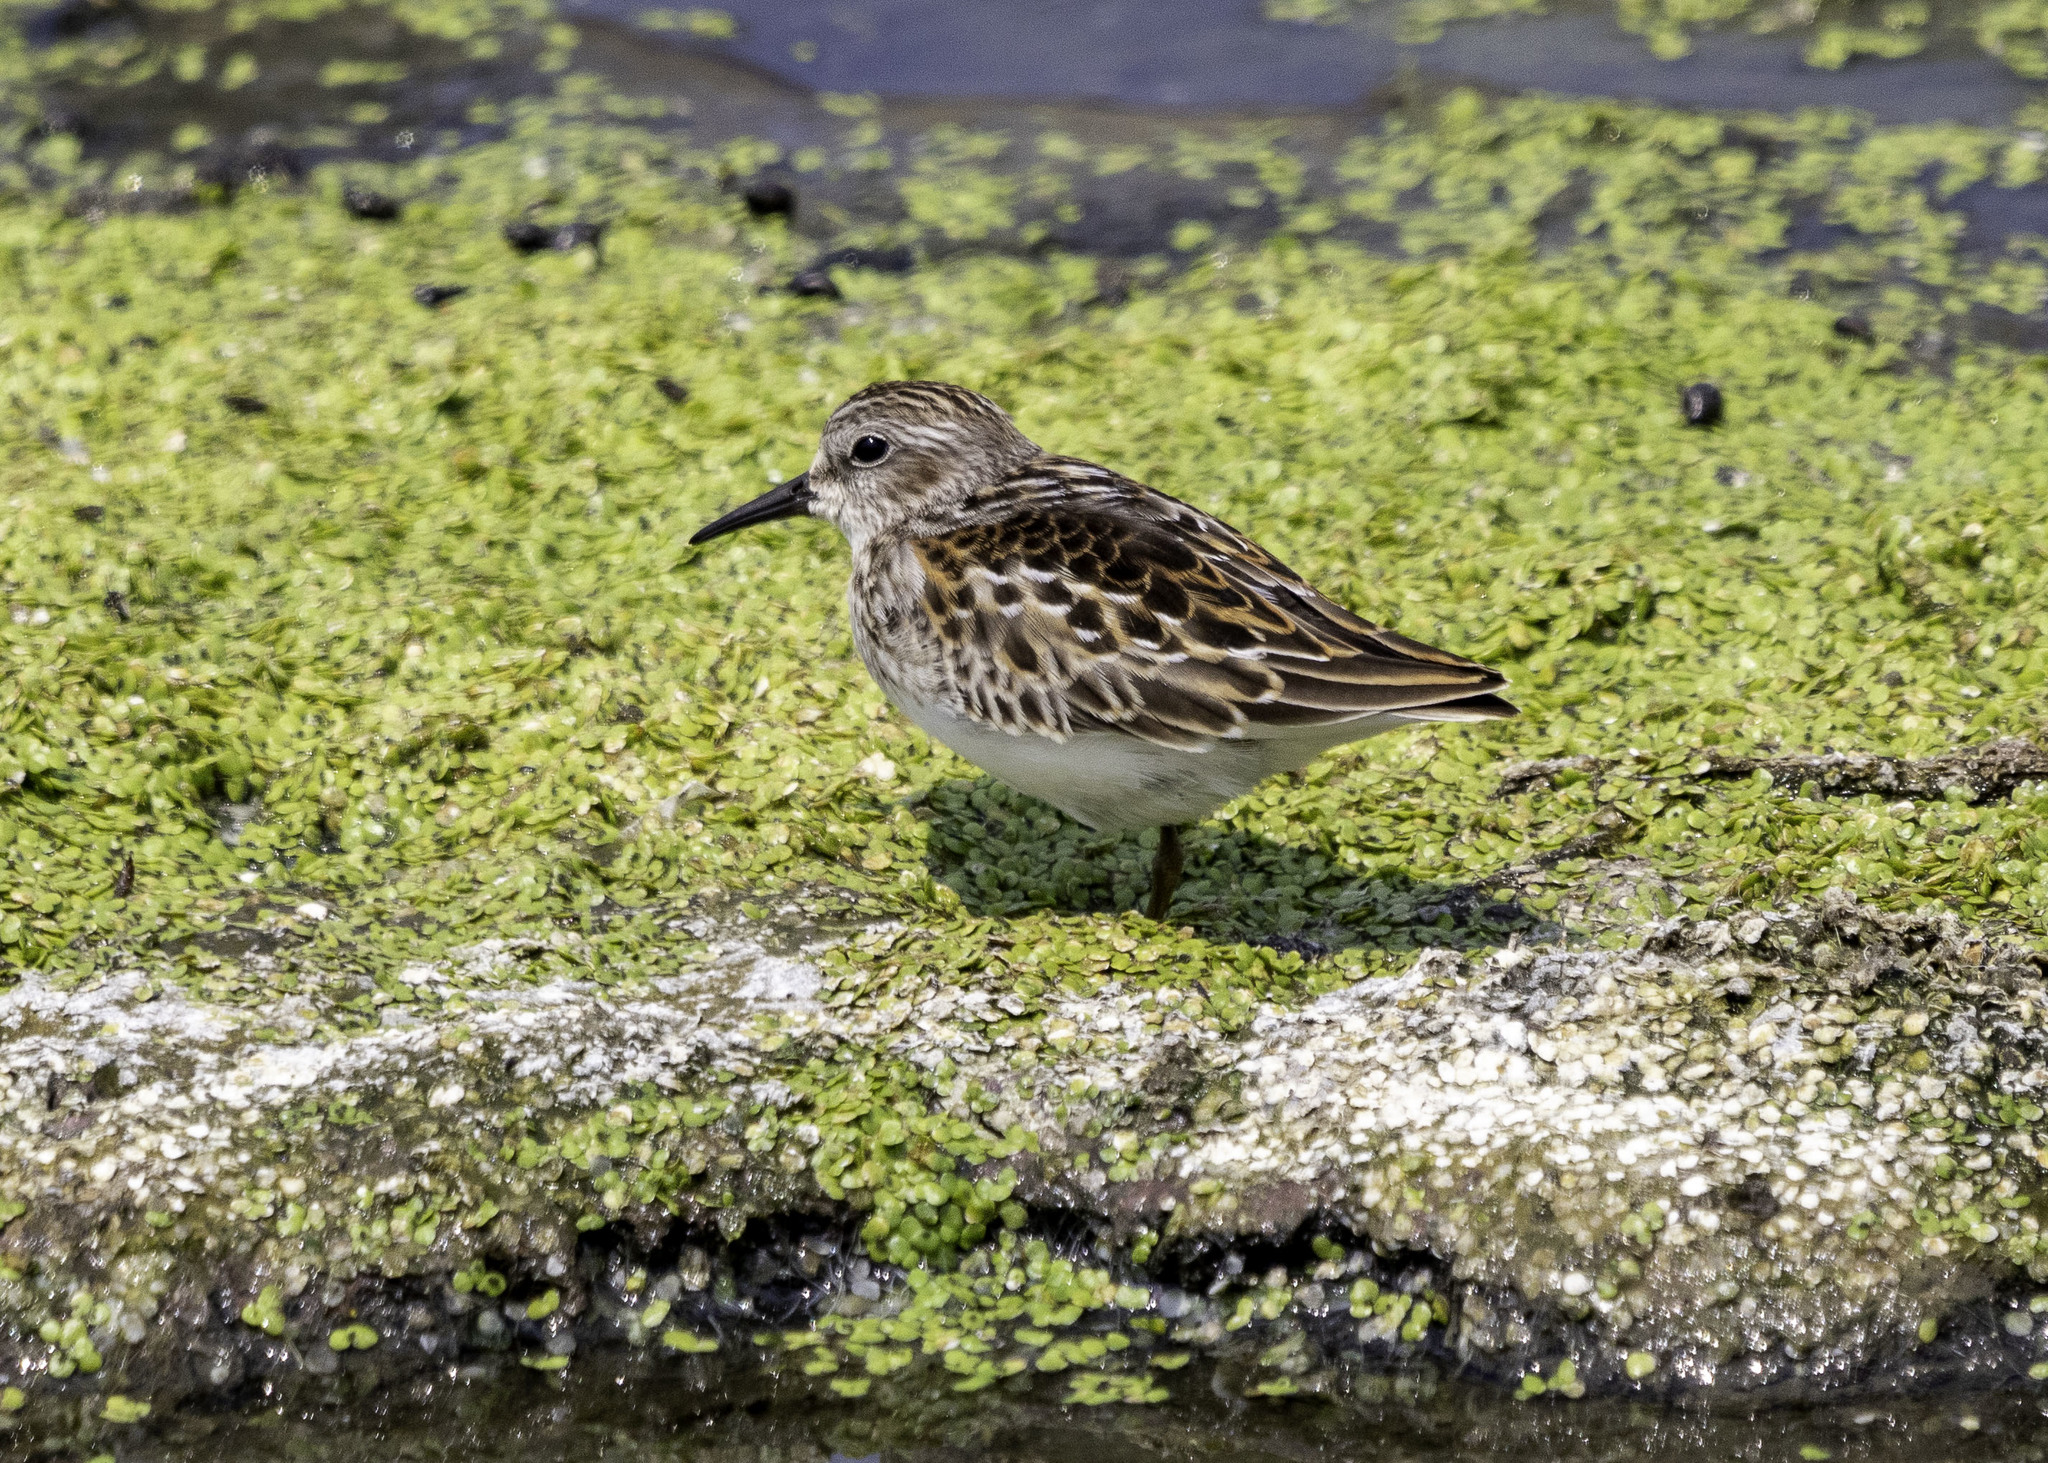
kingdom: Animalia
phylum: Chordata
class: Aves
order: Charadriiformes
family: Scolopacidae
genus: Calidris
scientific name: Calidris minutilla
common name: Least sandpiper
